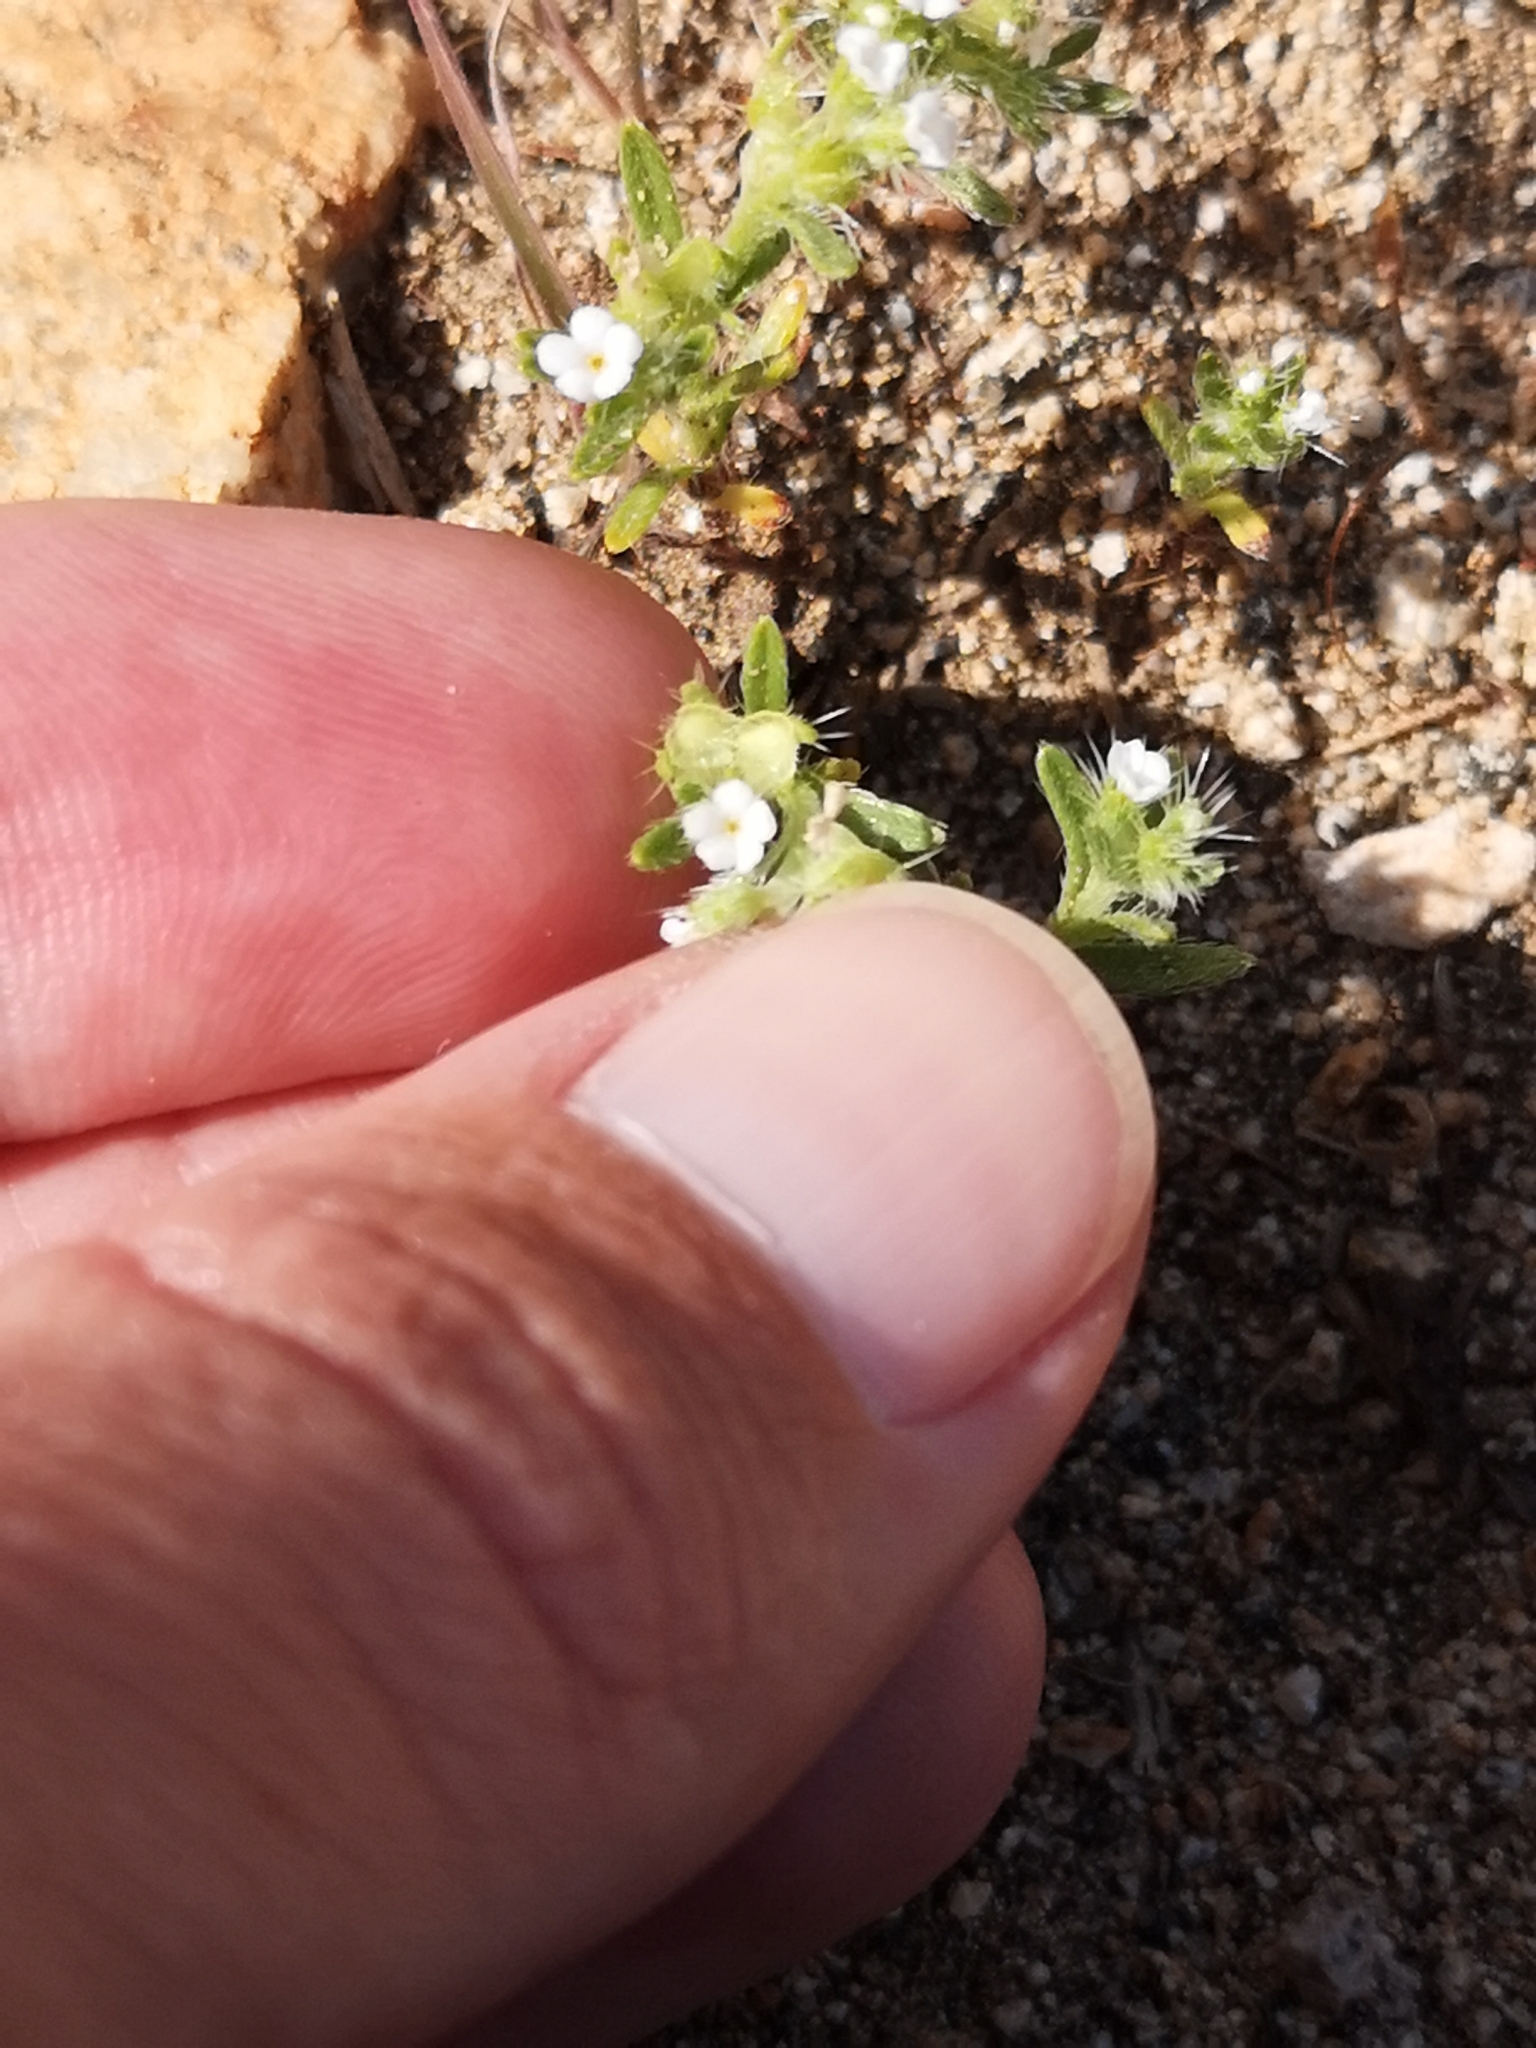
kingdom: Plantae
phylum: Tracheophyta
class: Magnoliopsida
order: Boraginales
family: Boraginaceae
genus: Pectocarya
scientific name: Pectocarya setosa
